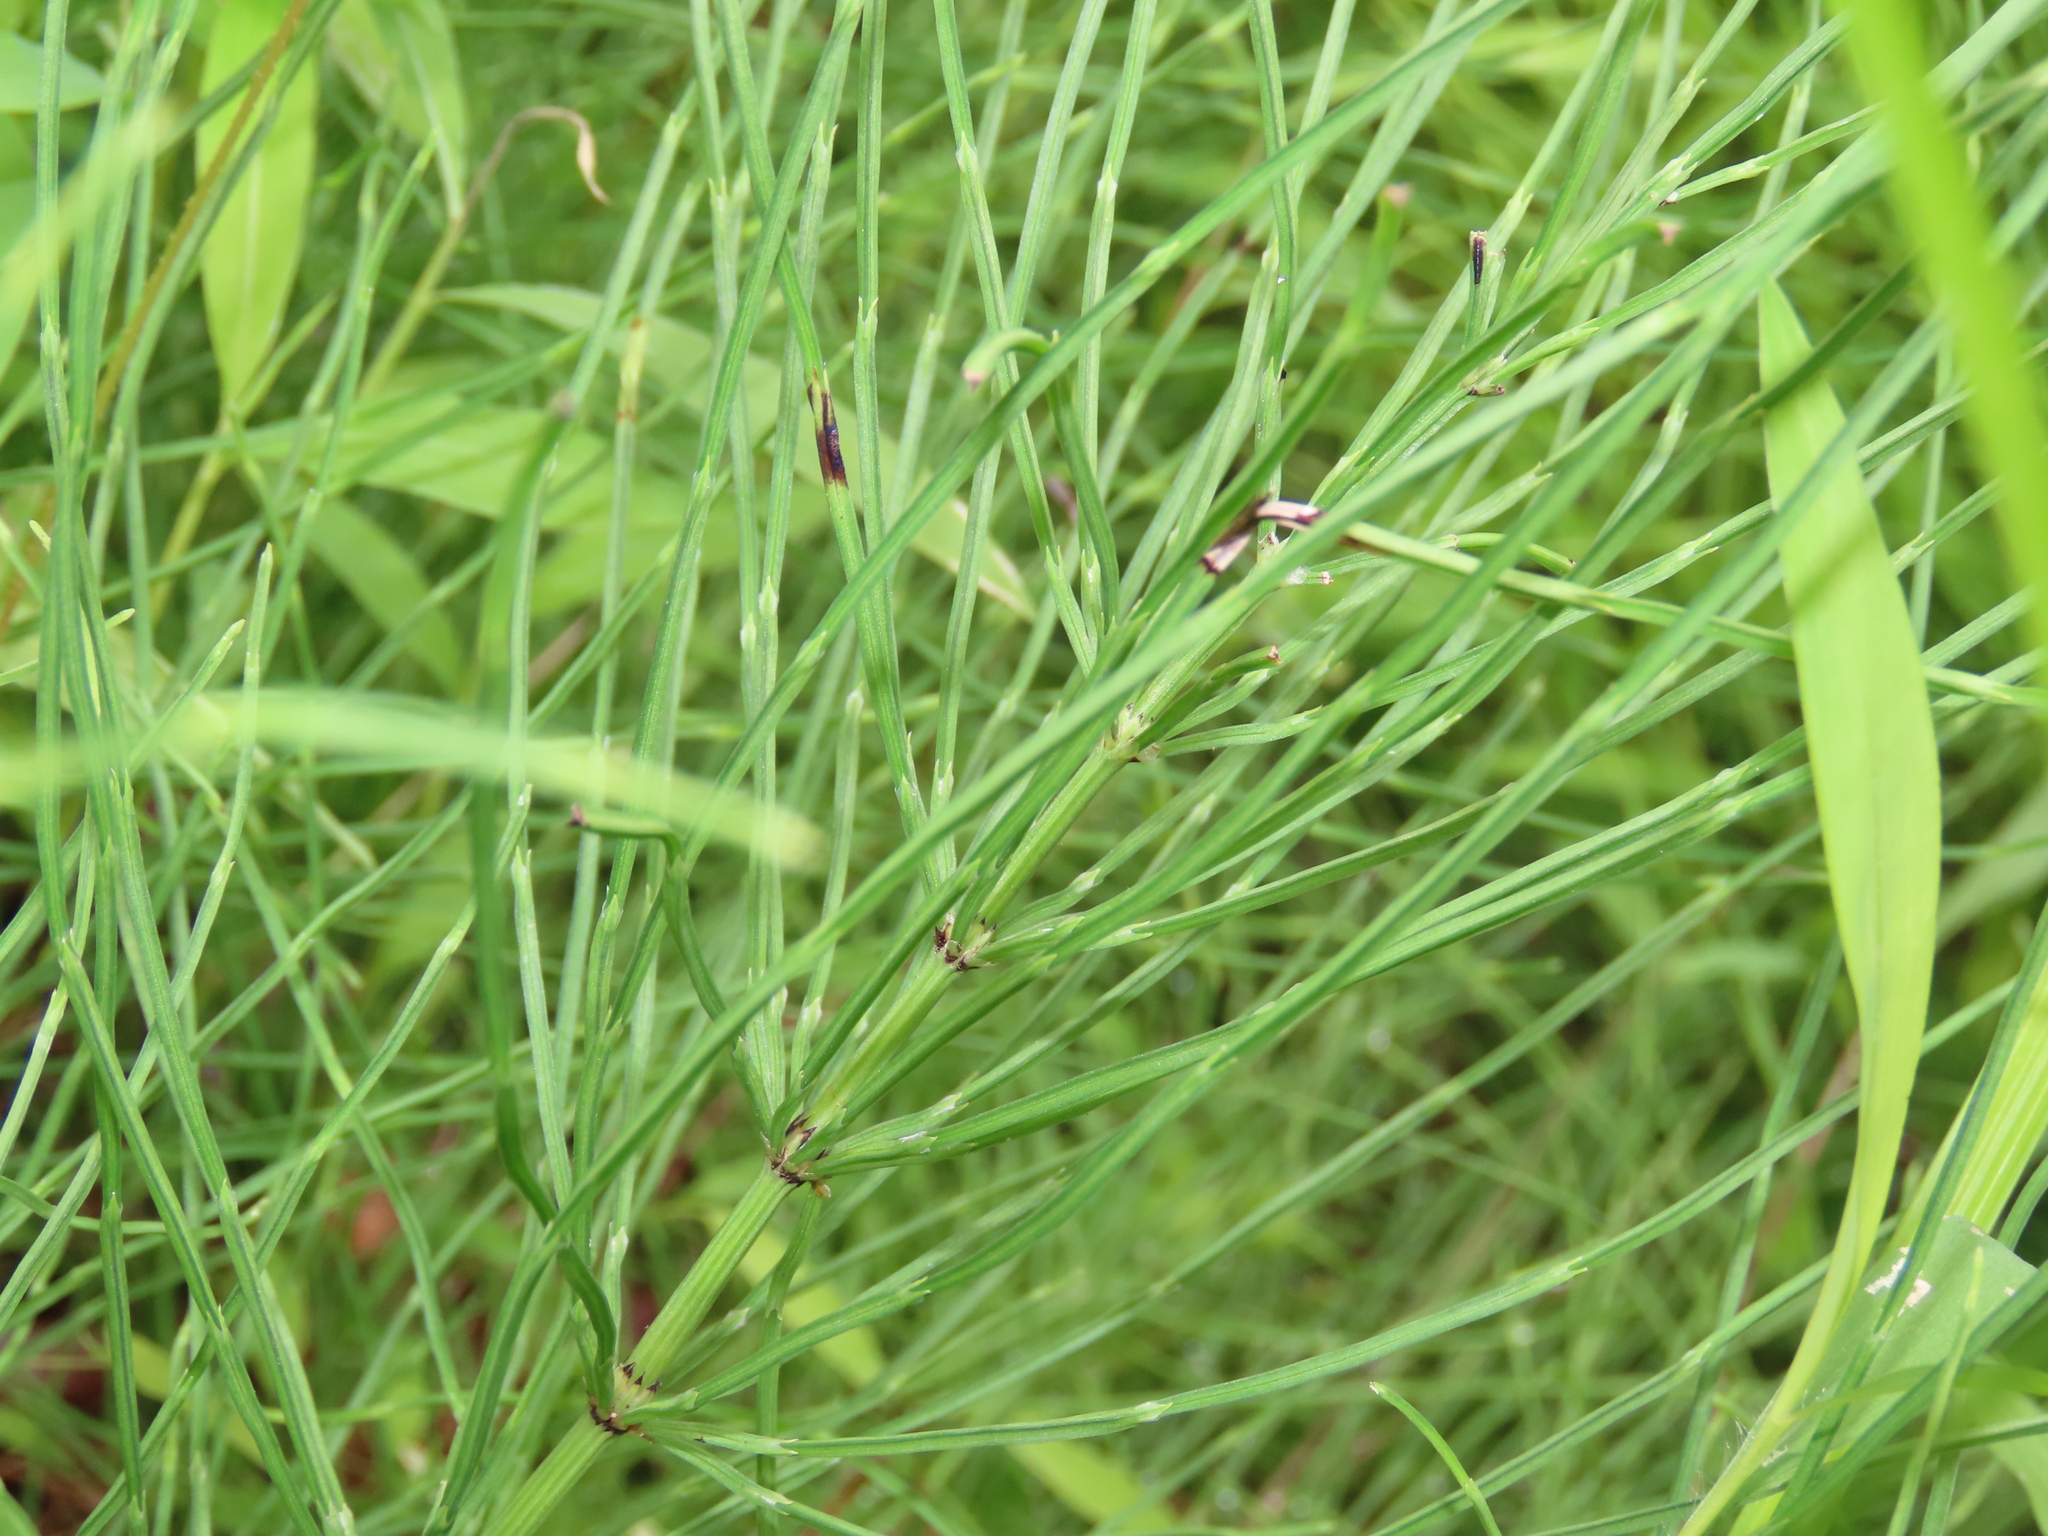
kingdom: Plantae
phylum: Tracheophyta
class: Polypodiopsida
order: Equisetales
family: Equisetaceae
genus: Equisetum
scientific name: Equisetum arvense
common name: Field horsetail
